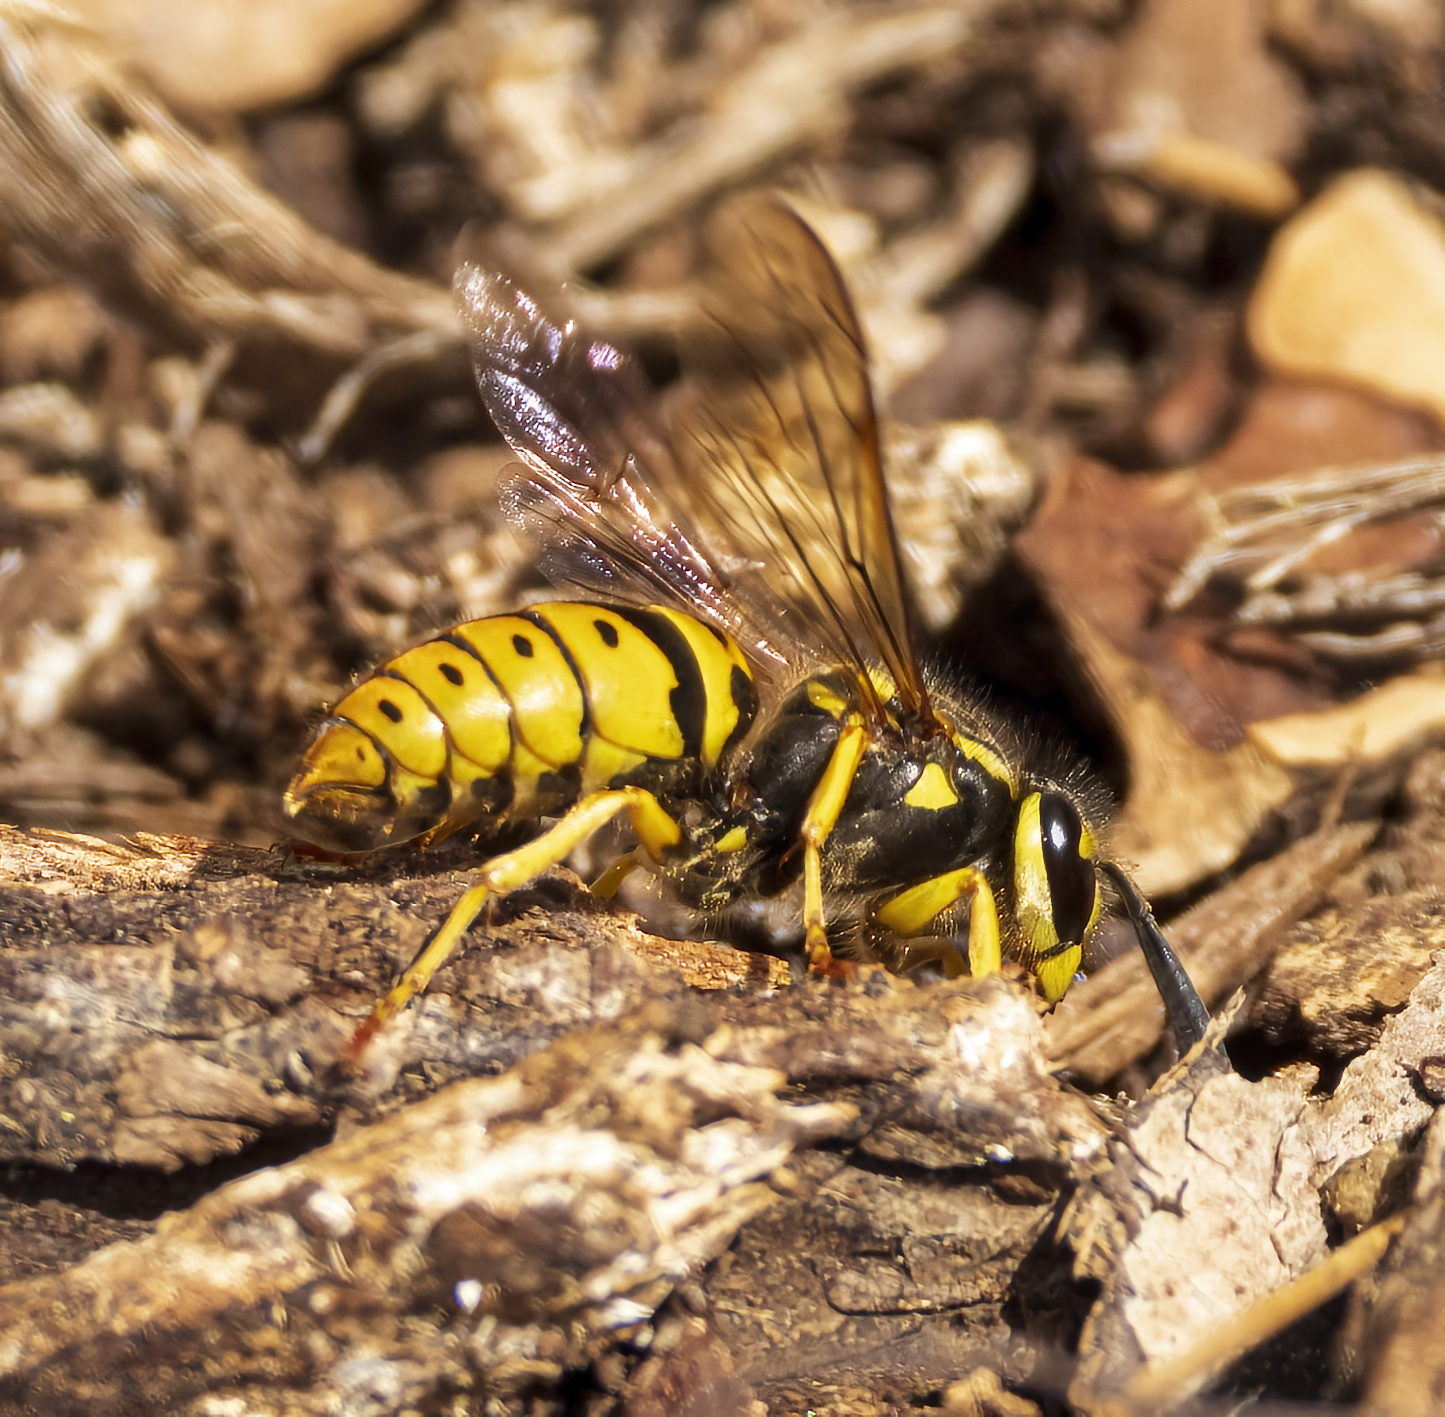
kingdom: Animalia
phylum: Arthropoda
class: Insecta
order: Hymenoptera
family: Vespidae
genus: Vespula
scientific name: Vespula maculifrons
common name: Eastern yellowjacket
